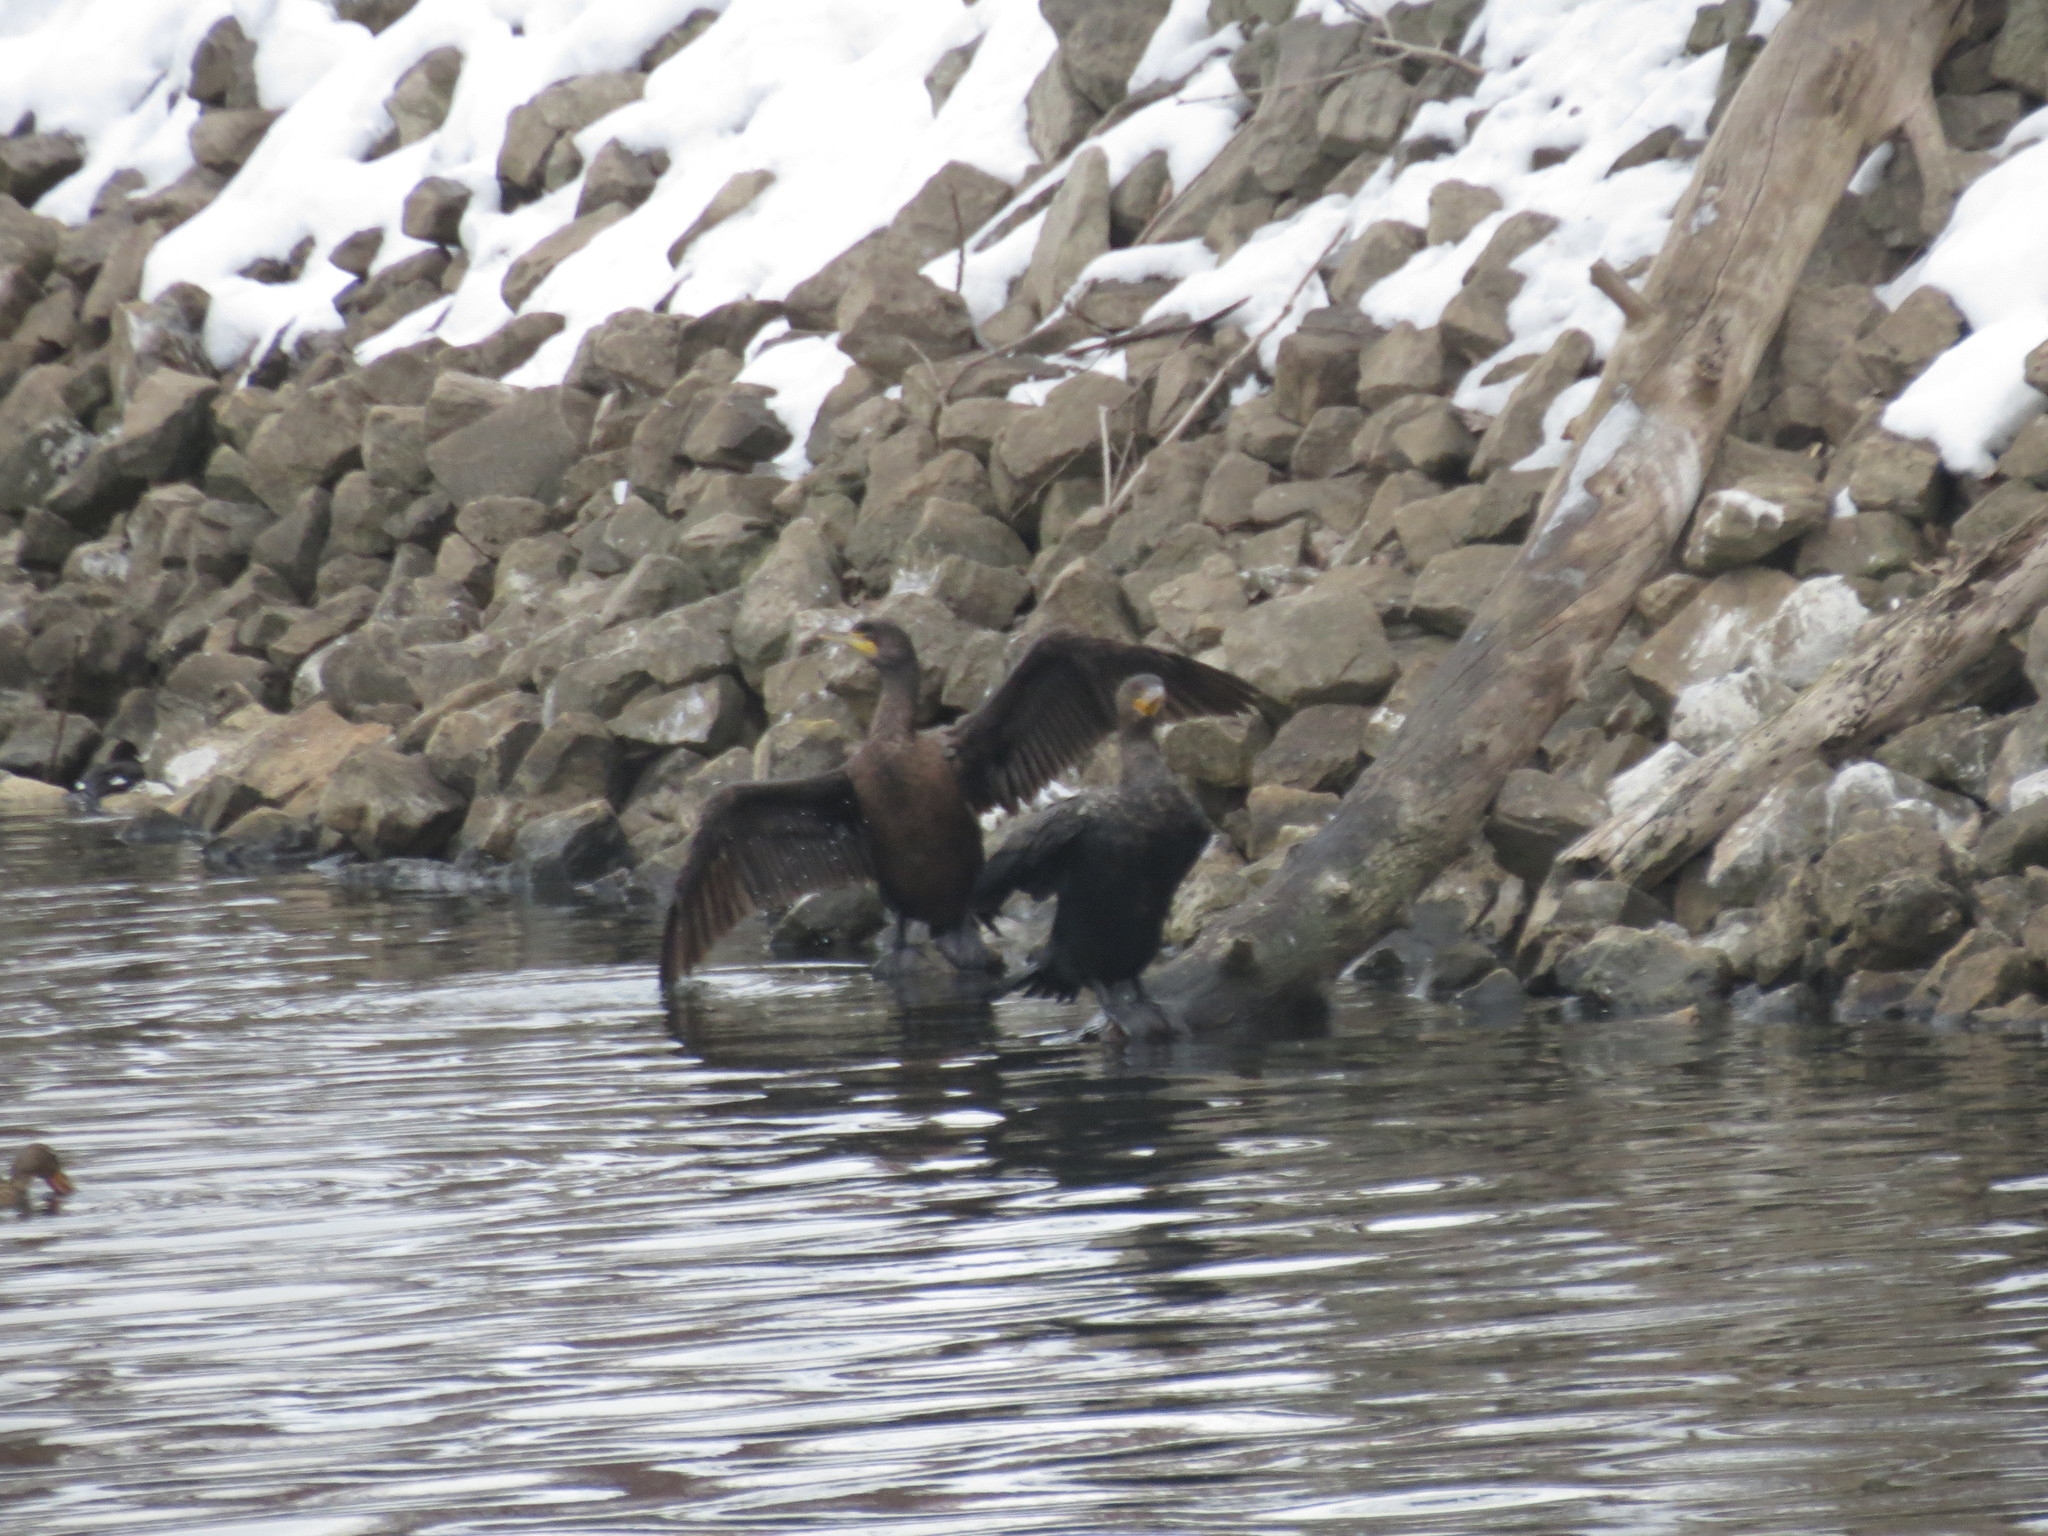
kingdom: Animalia
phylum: Chordata
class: Aves
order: Suliformes
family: Phalacrocoracidae
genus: Phalacrocorax
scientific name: Phalacrocorax auritus
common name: Double-crested cormorant
